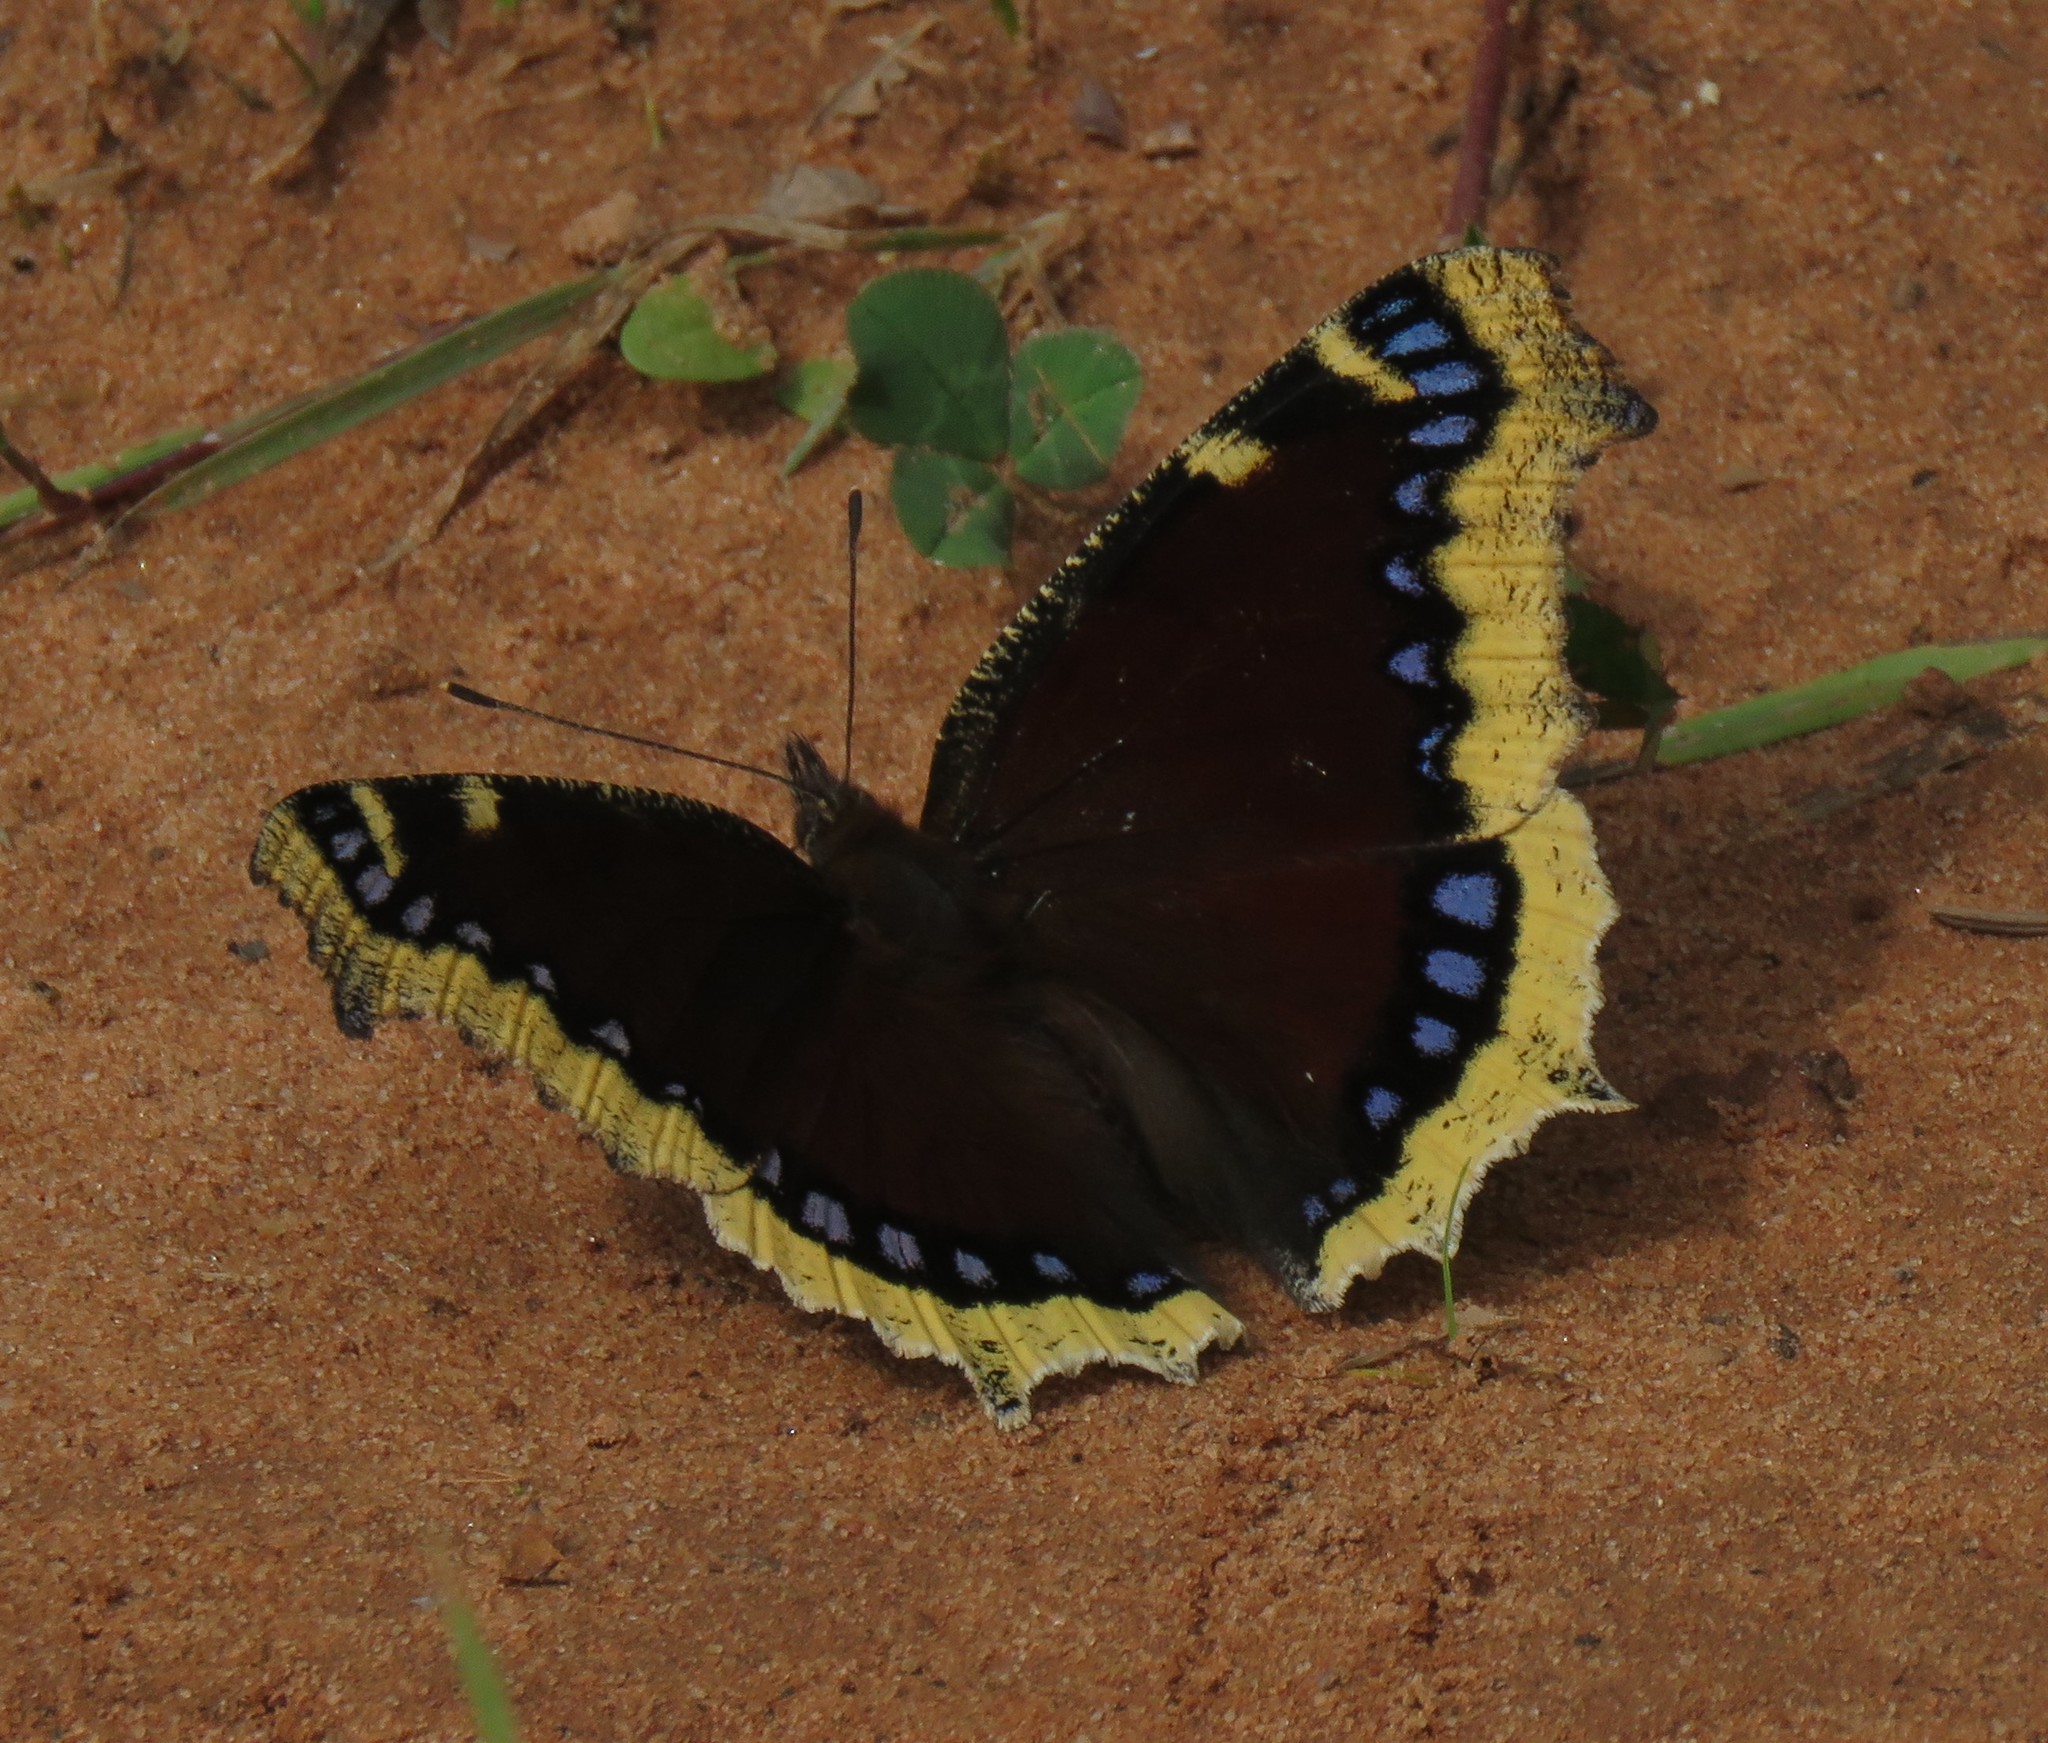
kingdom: Animalia
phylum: Arthropoda
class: Insecta
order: Lepidoptera
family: Nymphalidae
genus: Nymphalis
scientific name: Nymphalis antiopa
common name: Camberwell beauty
